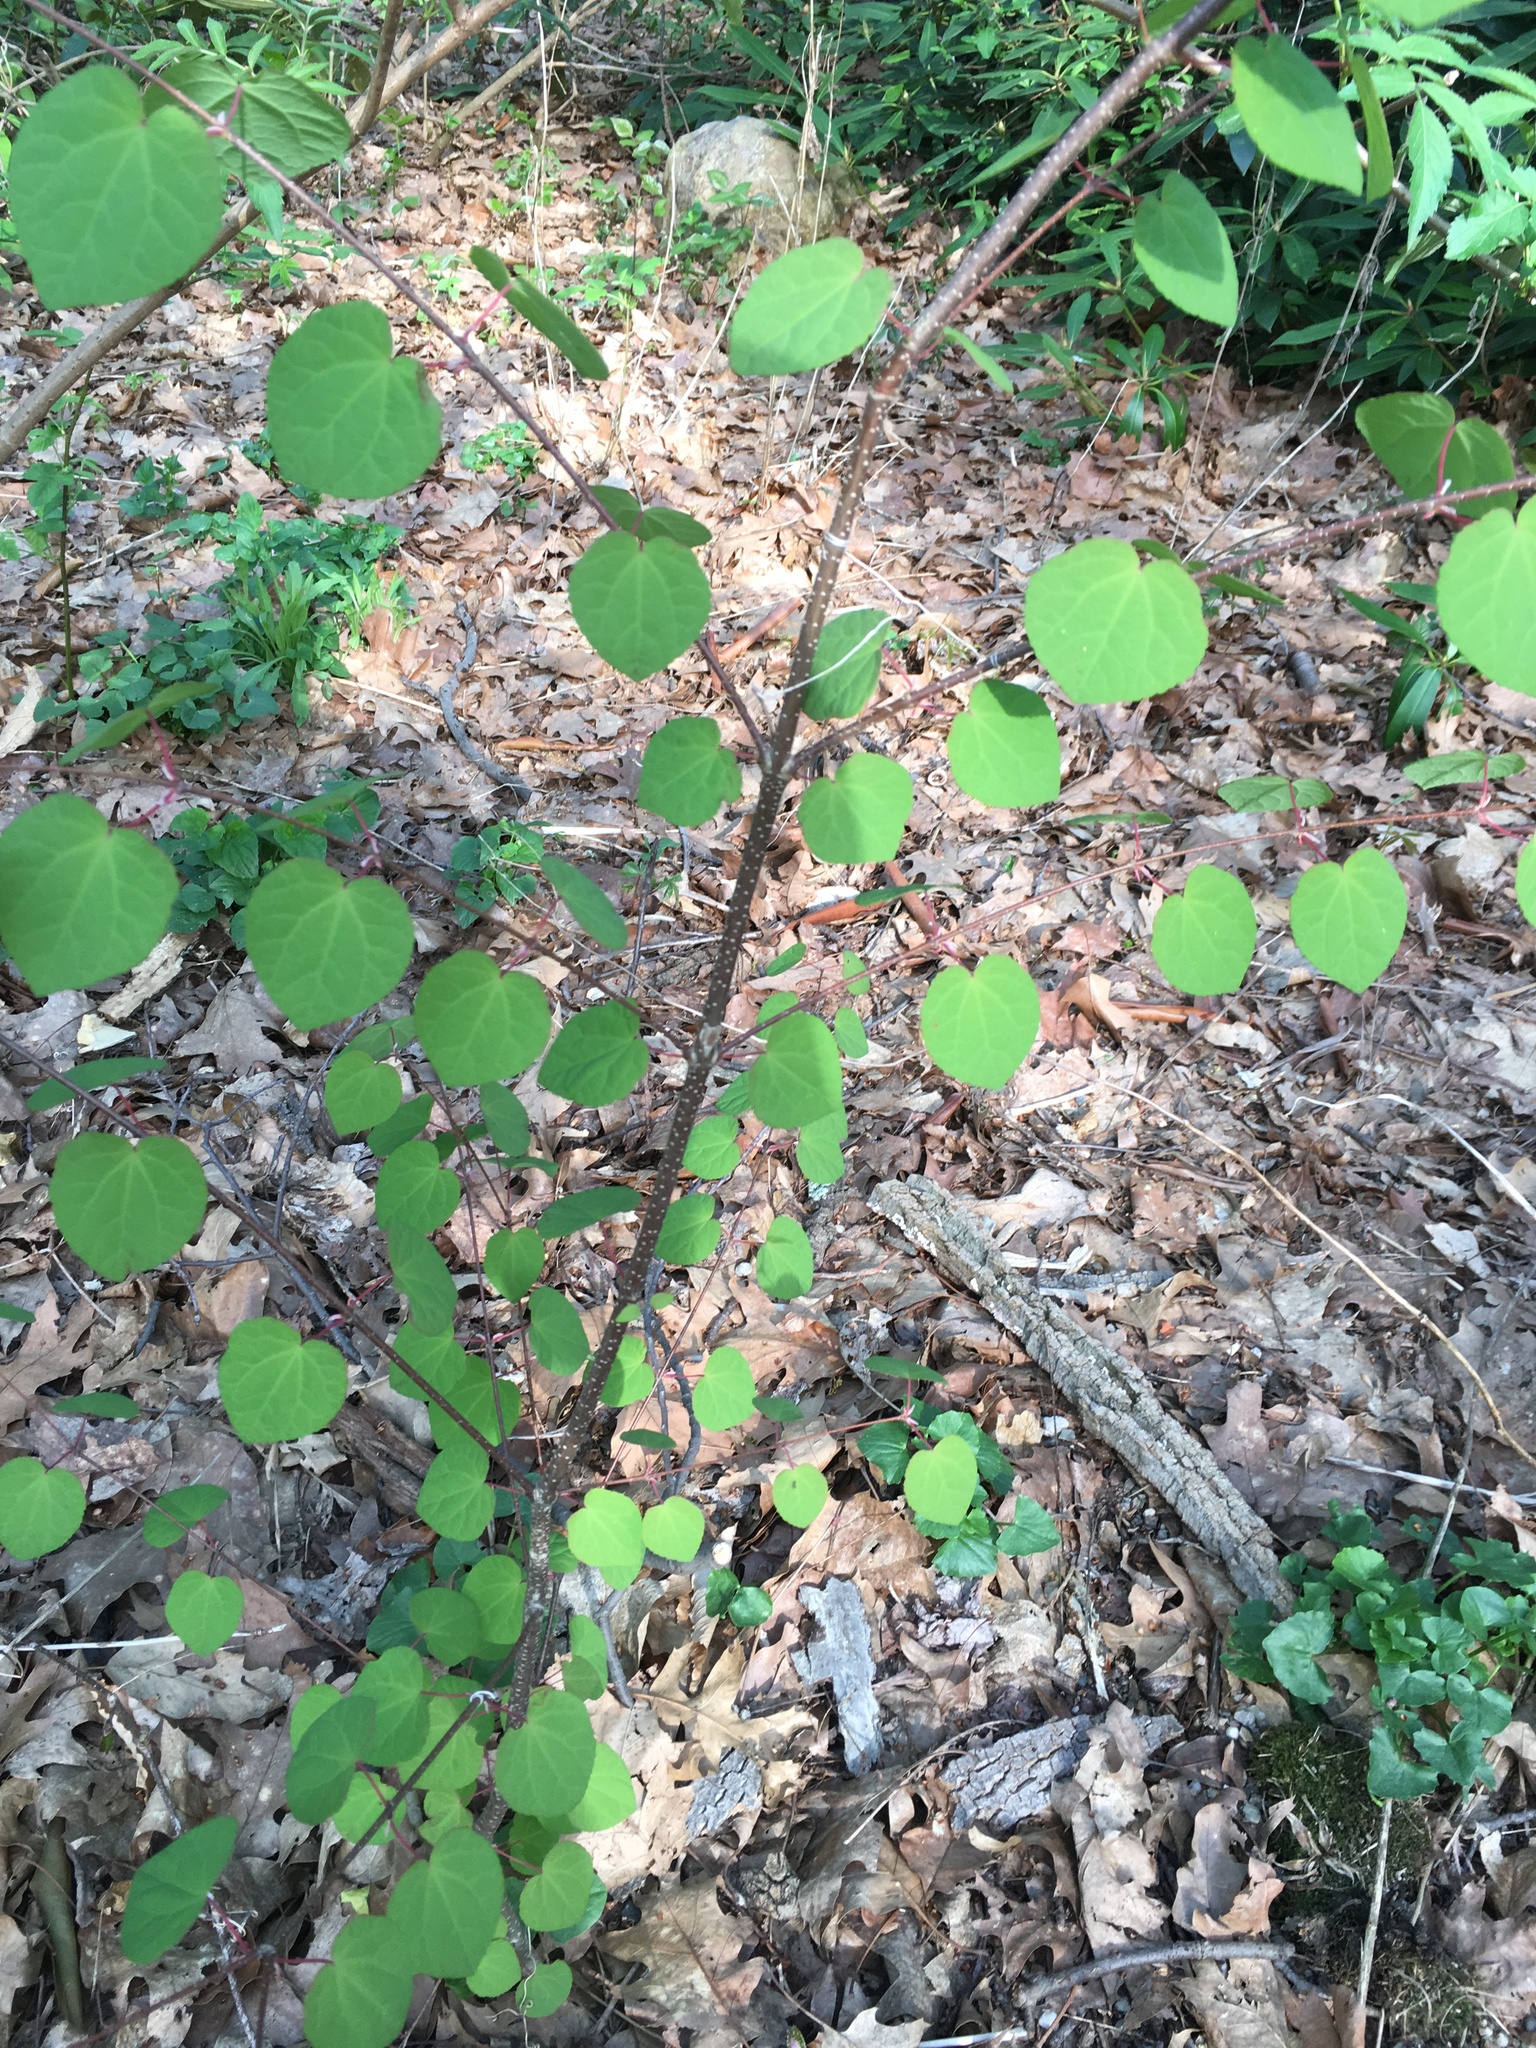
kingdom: Plantae
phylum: Tracheophyta
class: Magnoliopsida
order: Saxifragales
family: Cercidiphyllaceae
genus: Cercidiphyllum
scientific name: Cercidiphyllum japonicum
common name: Katsura tree
